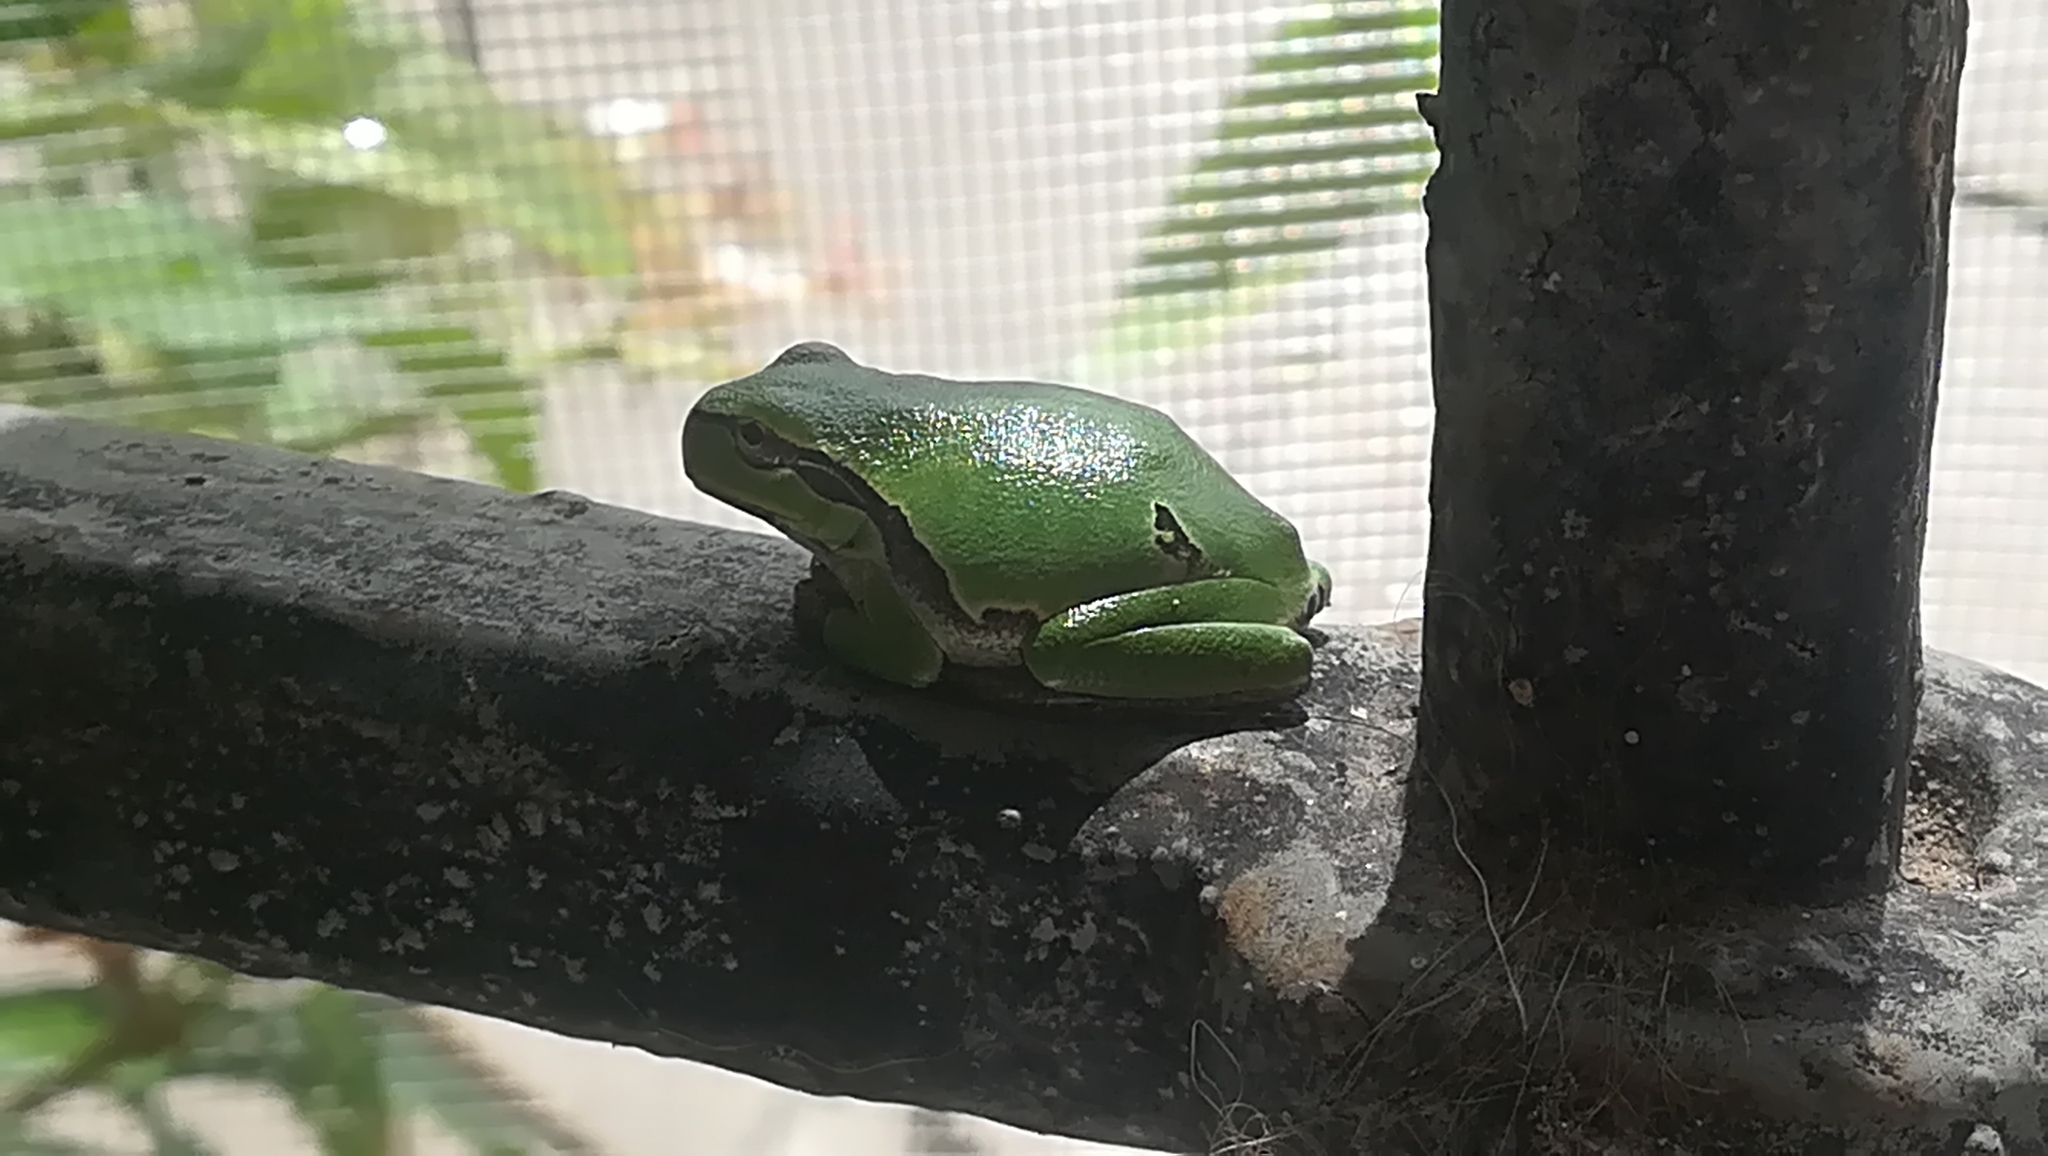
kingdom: Animalia
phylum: Chordata
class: Amphibia
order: Anura
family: Hylidae
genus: Hyla
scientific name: Hyla intermedia
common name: Italian tree frog
